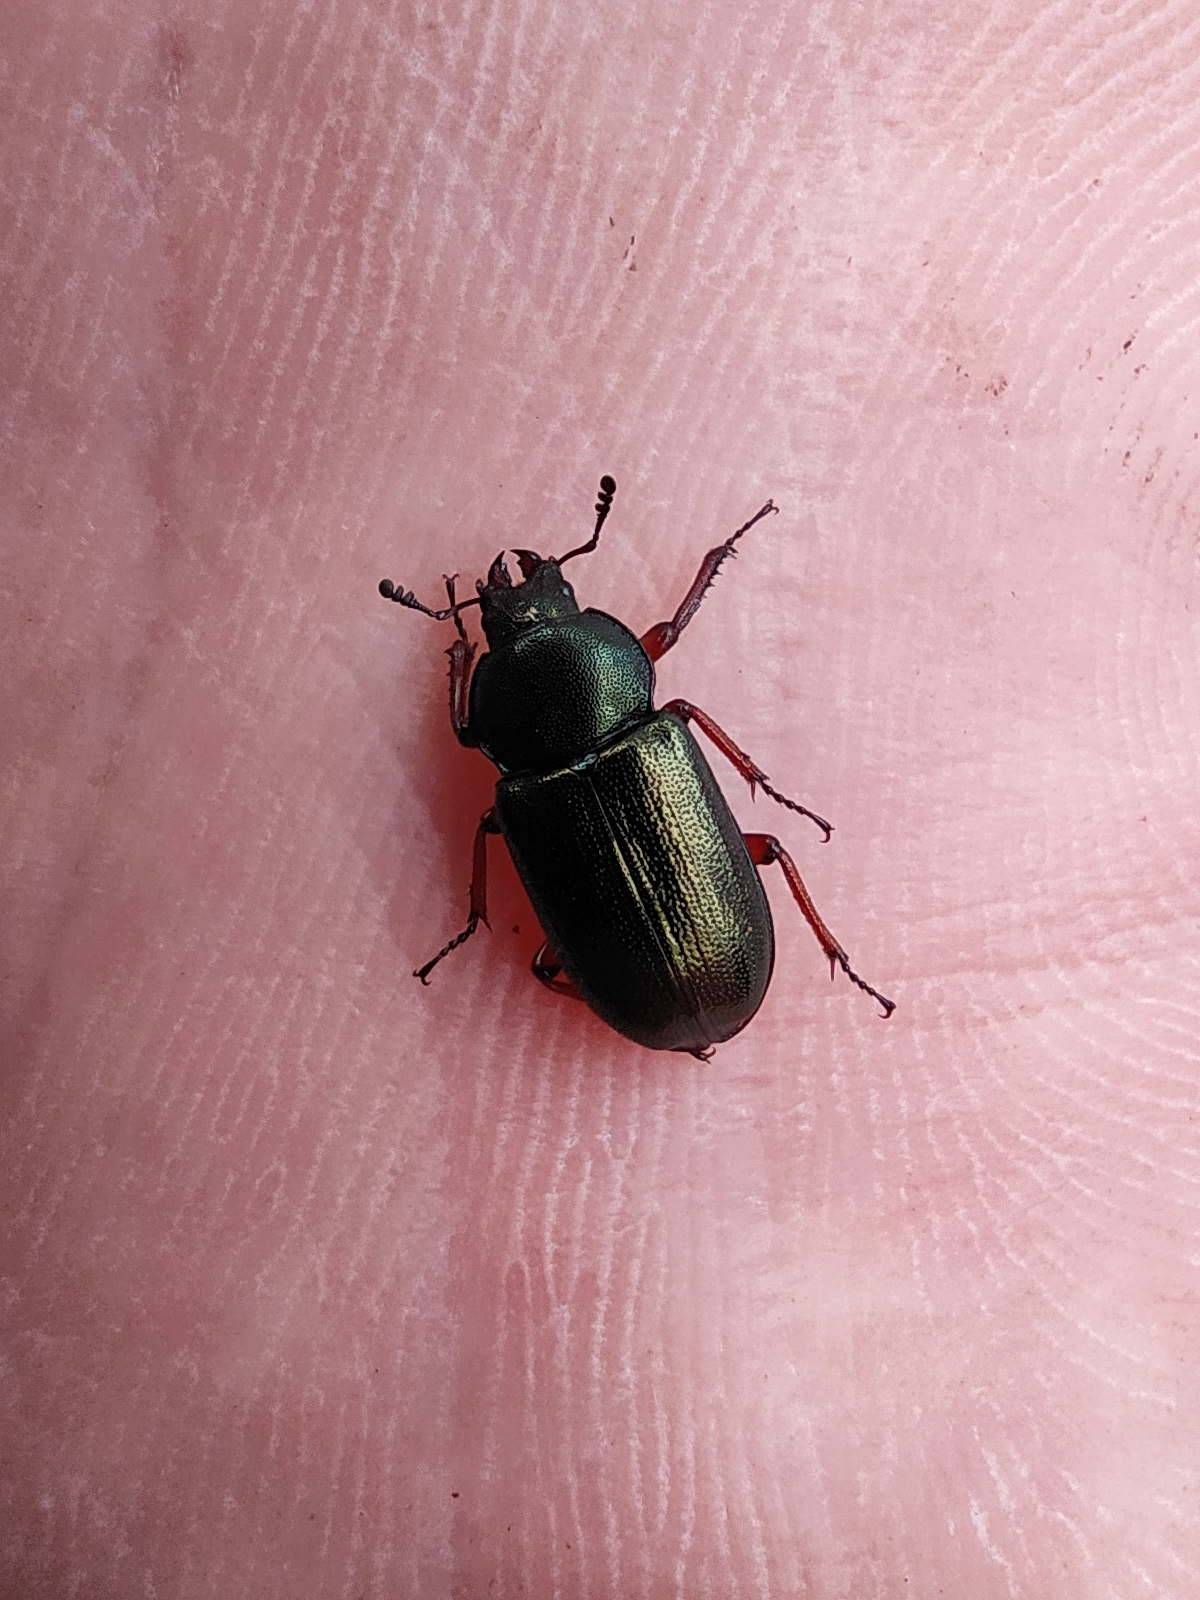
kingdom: Animalia
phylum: Arthropoda
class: Insecta
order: Coleoptera
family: Lucanidae
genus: Platycerus
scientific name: Platycerus caraboides
